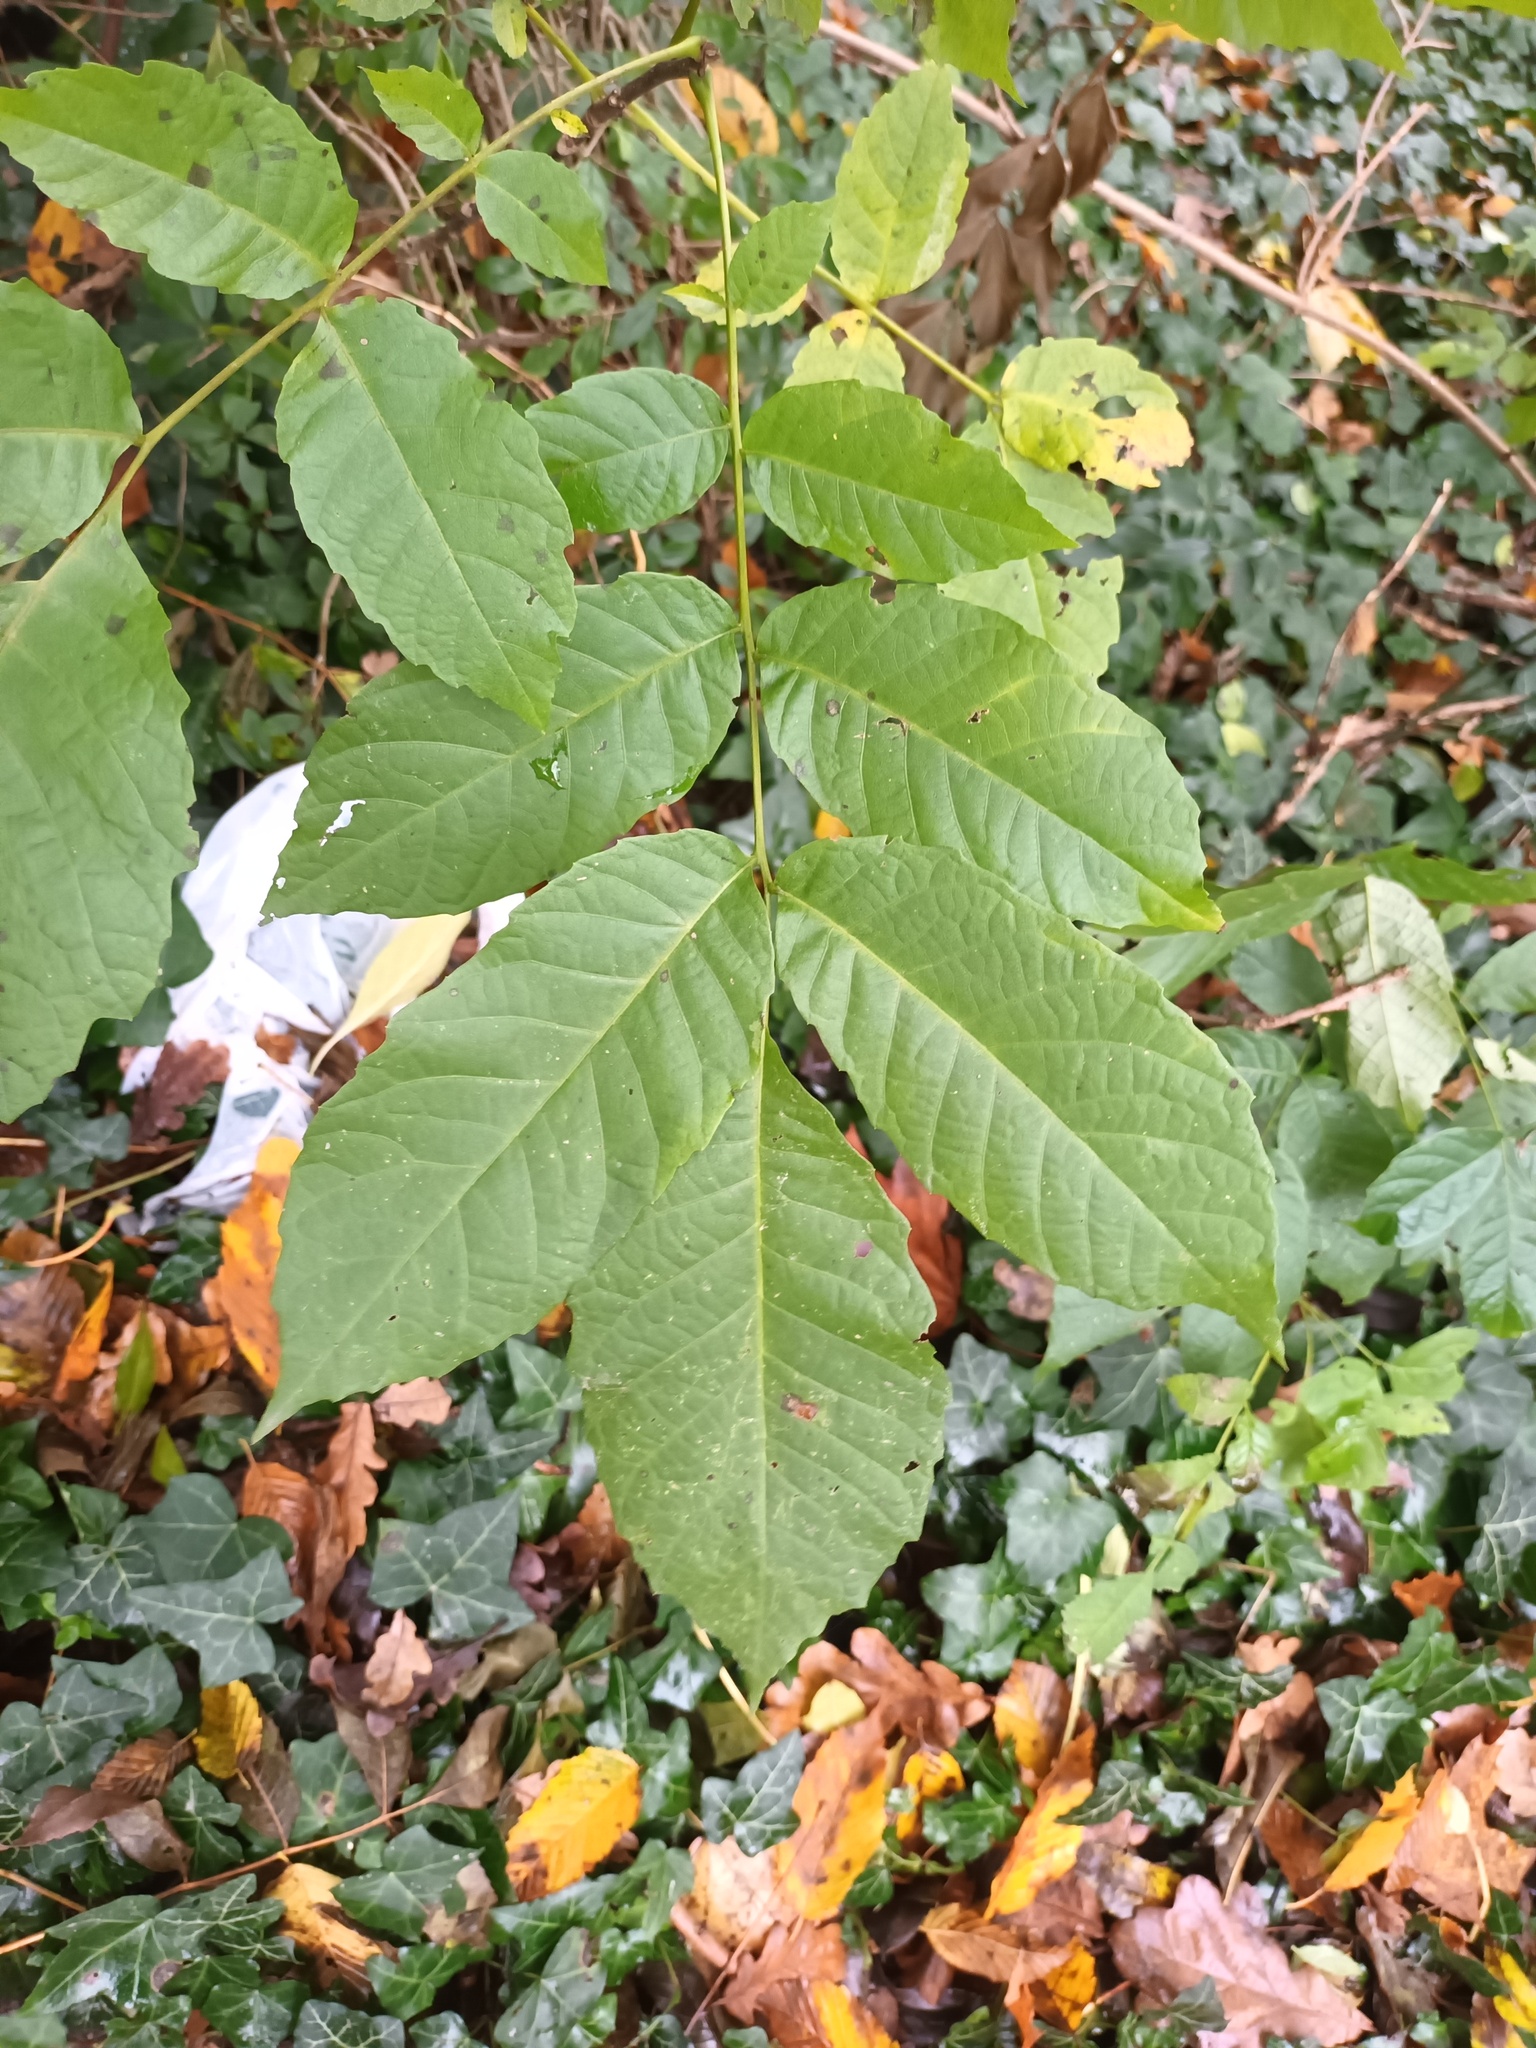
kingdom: Plantae
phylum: Tracheophyta
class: Magnoliopsida
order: Fagales
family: Juglandaceae
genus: Juglans
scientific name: Juglans regia
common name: Walnut
